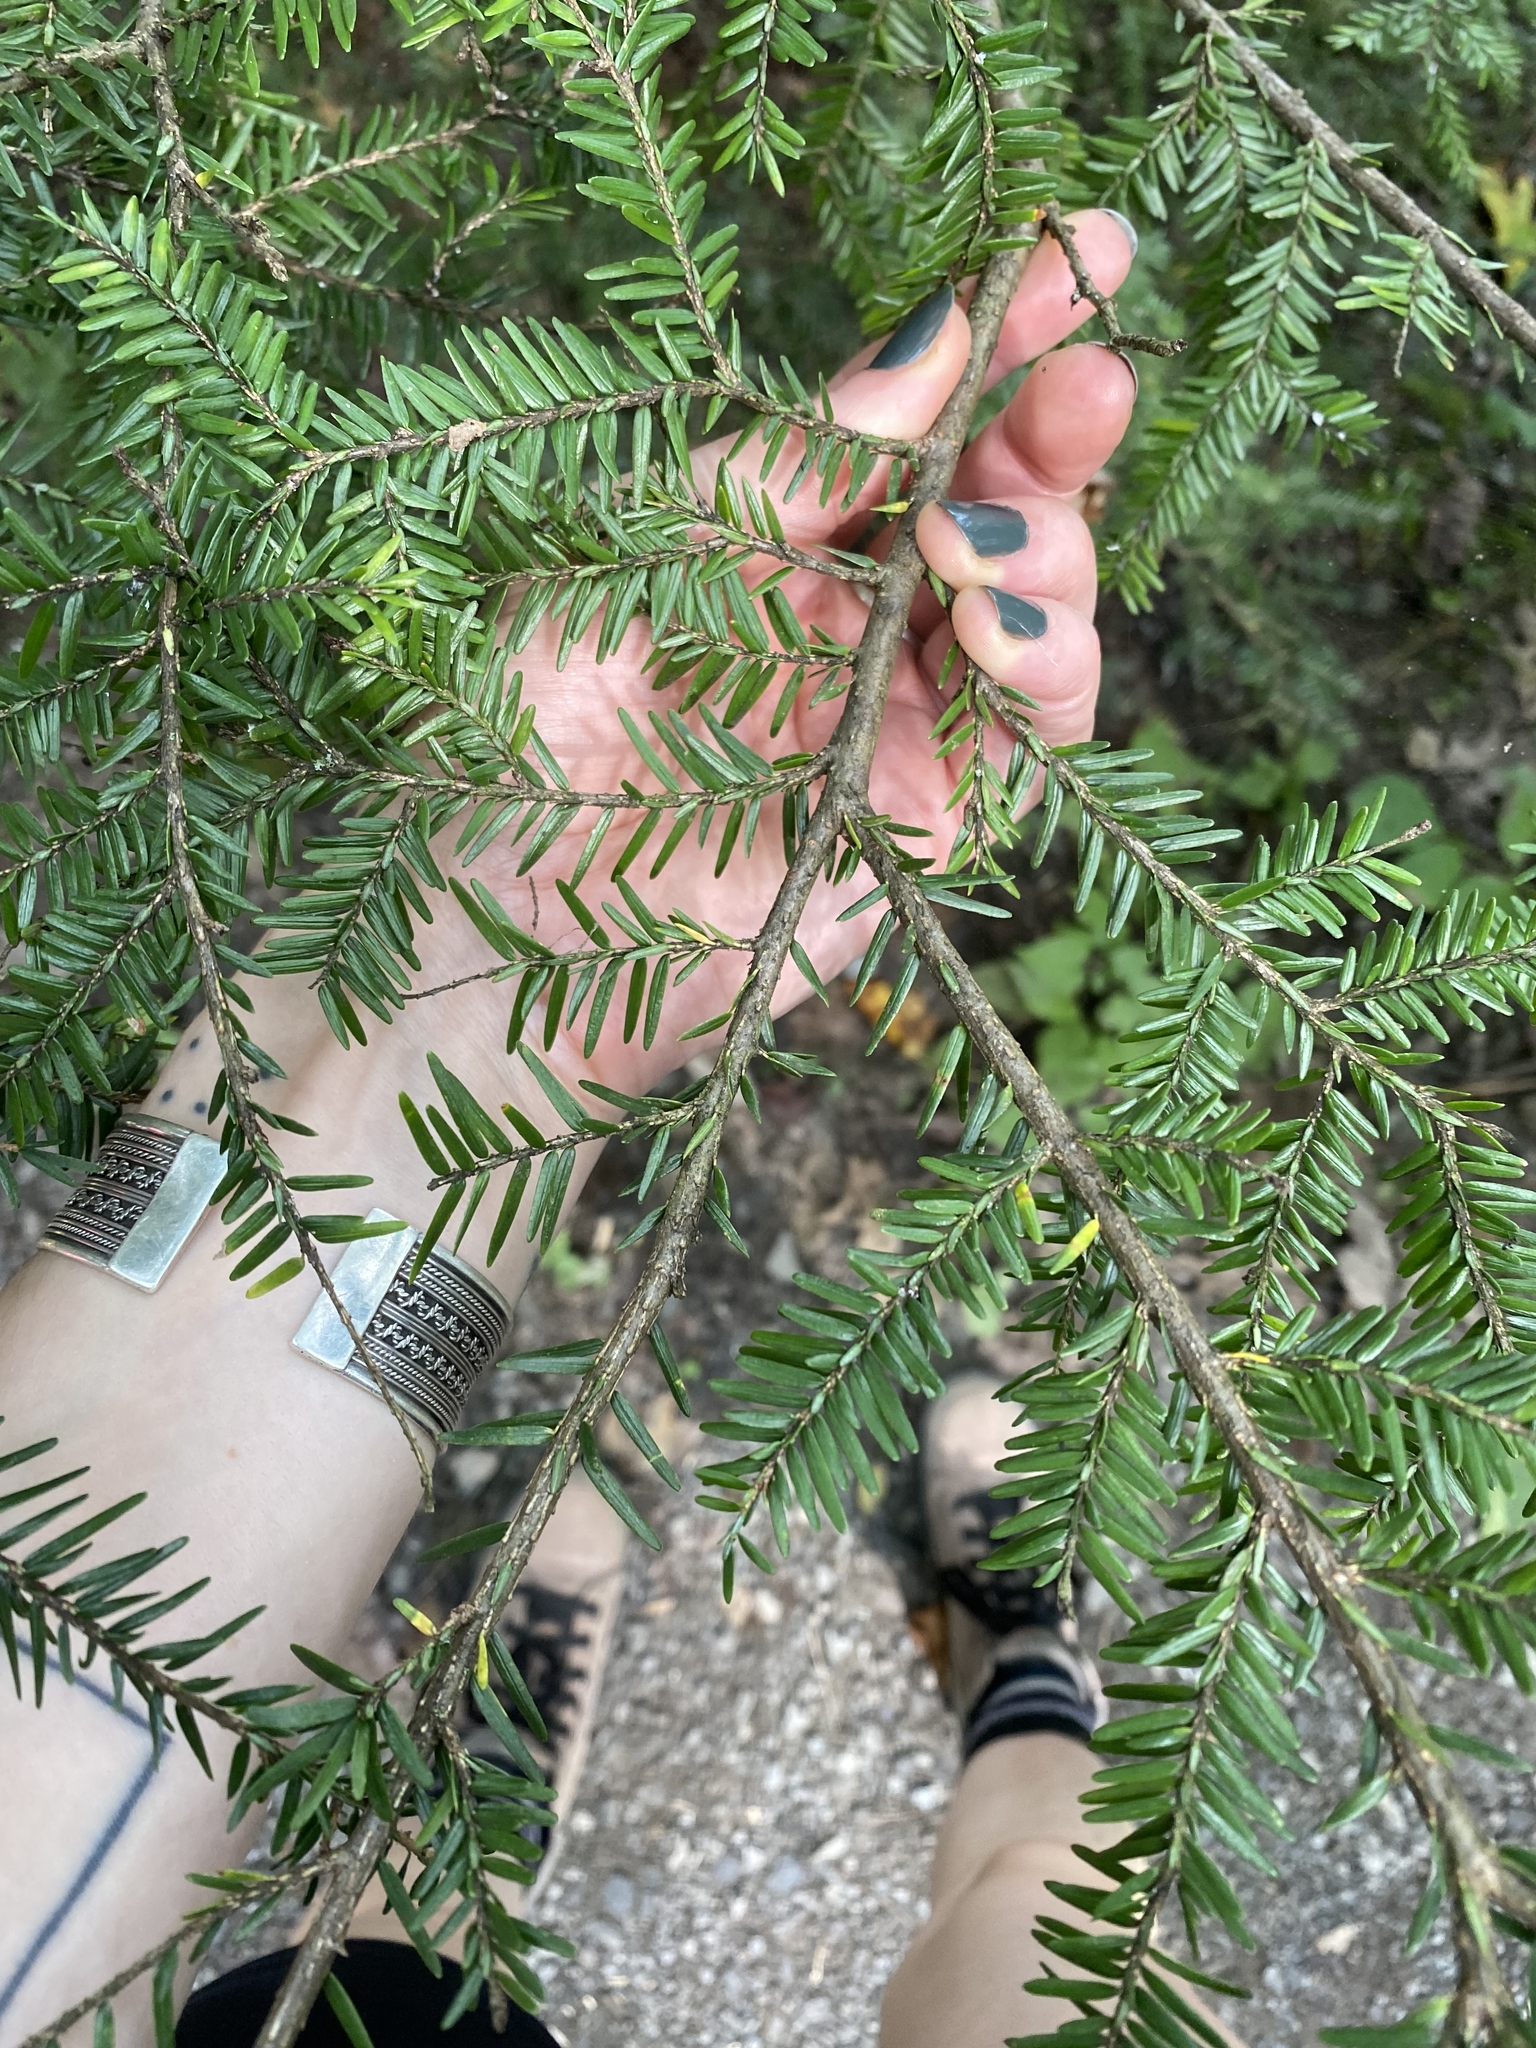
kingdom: Plantae
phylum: Tracheophyta
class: Pinopsida
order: Pinales
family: Pinaceae
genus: Tsuga
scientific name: Tsuga canadensis
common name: Eastern hemlock
